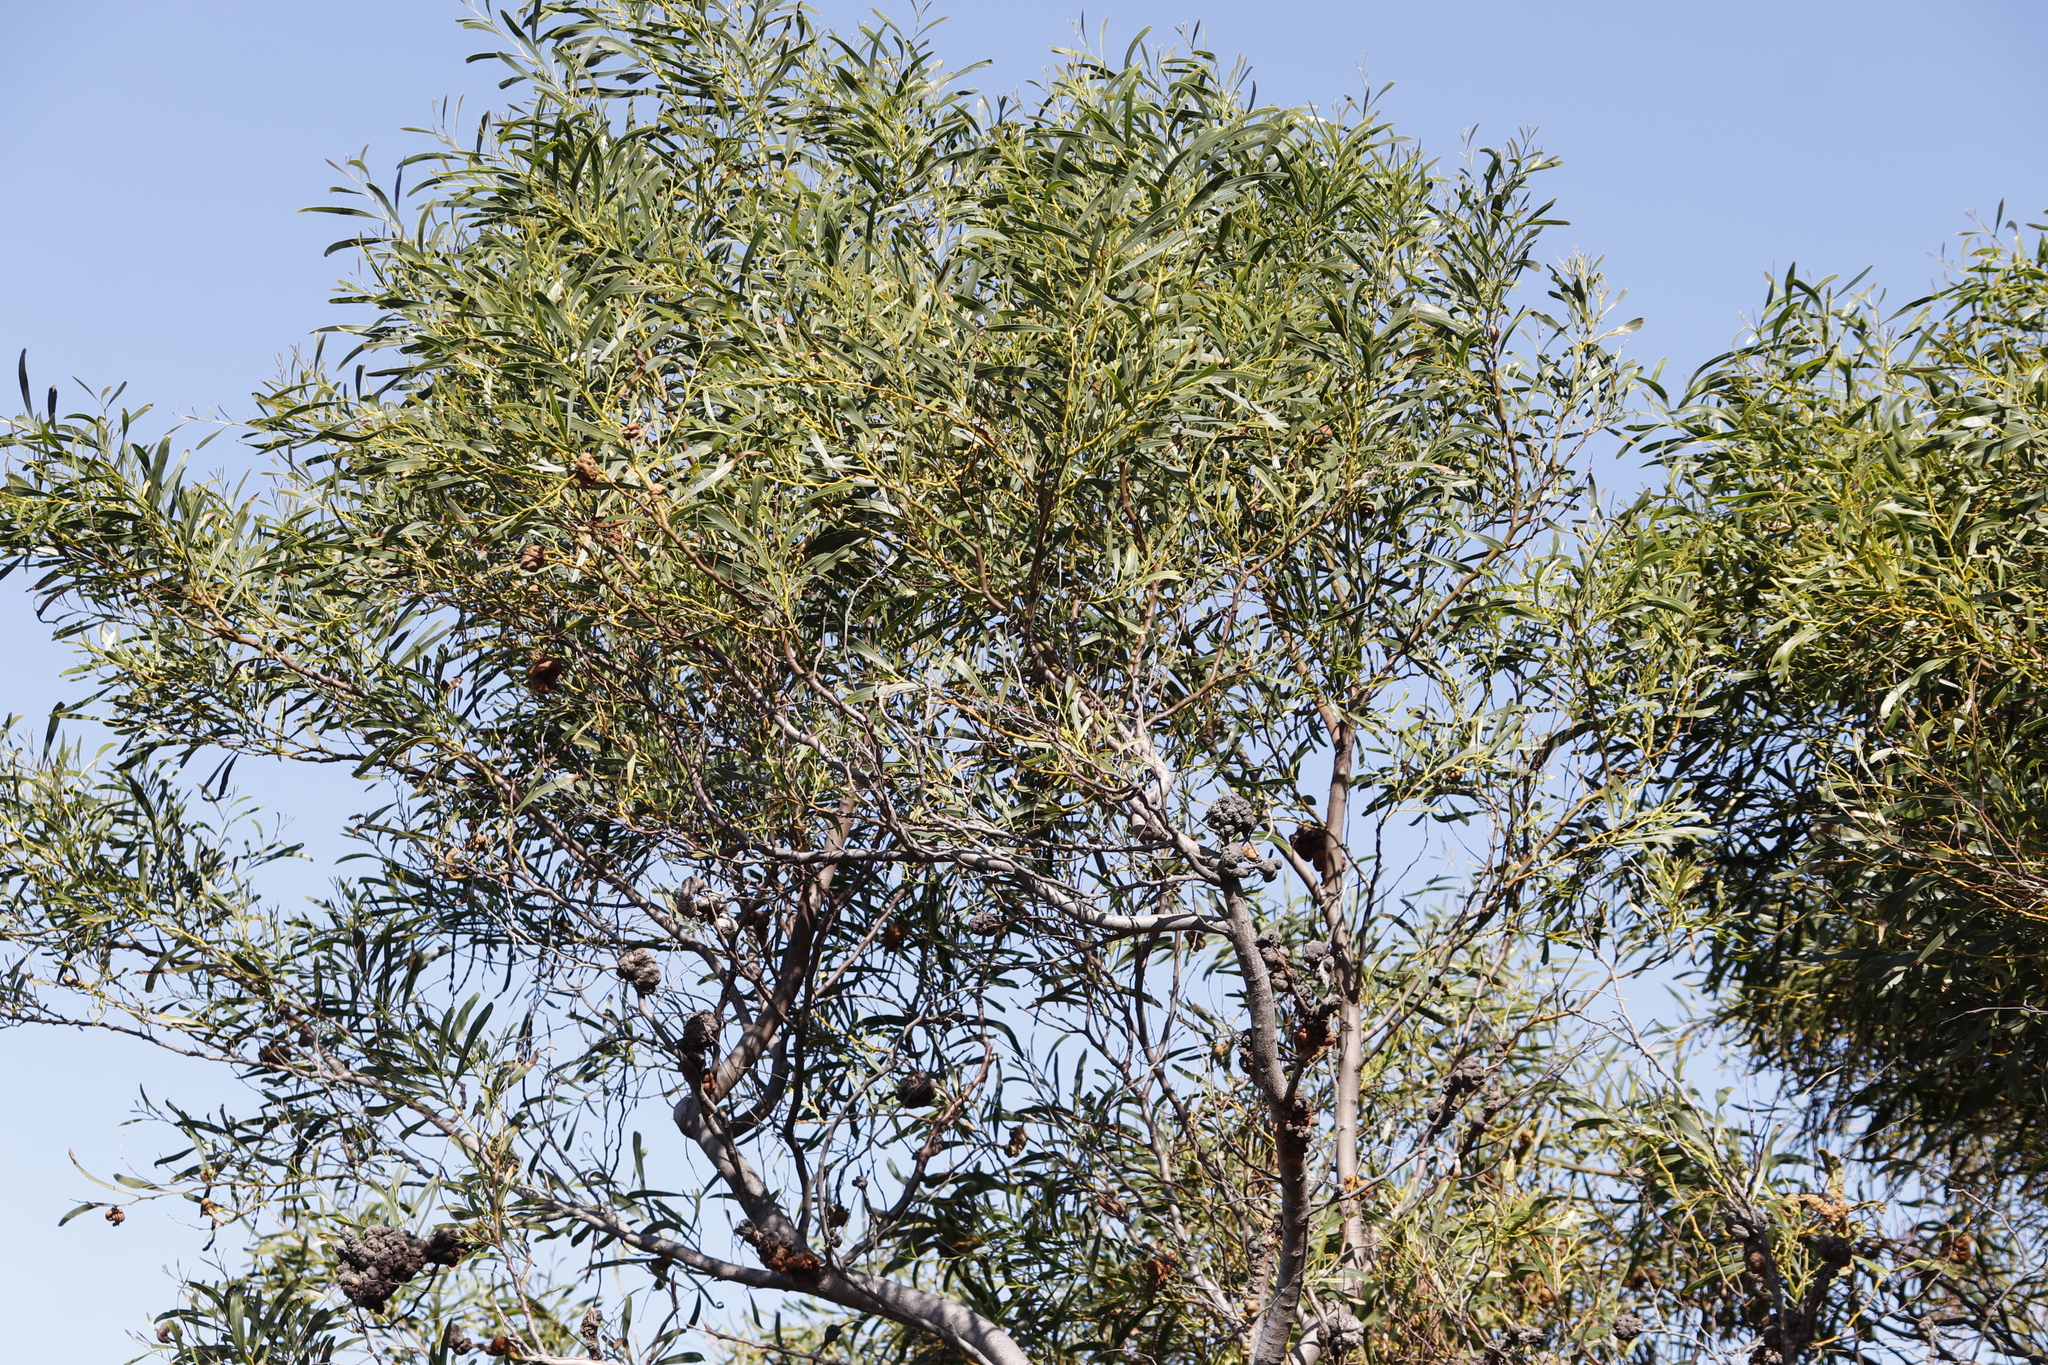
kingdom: Plantae
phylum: Tracheophyta
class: Magnoliopsida
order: Fabales
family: Fabaceae
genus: Acacia
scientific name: Acacia saligna
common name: Orange wattle
